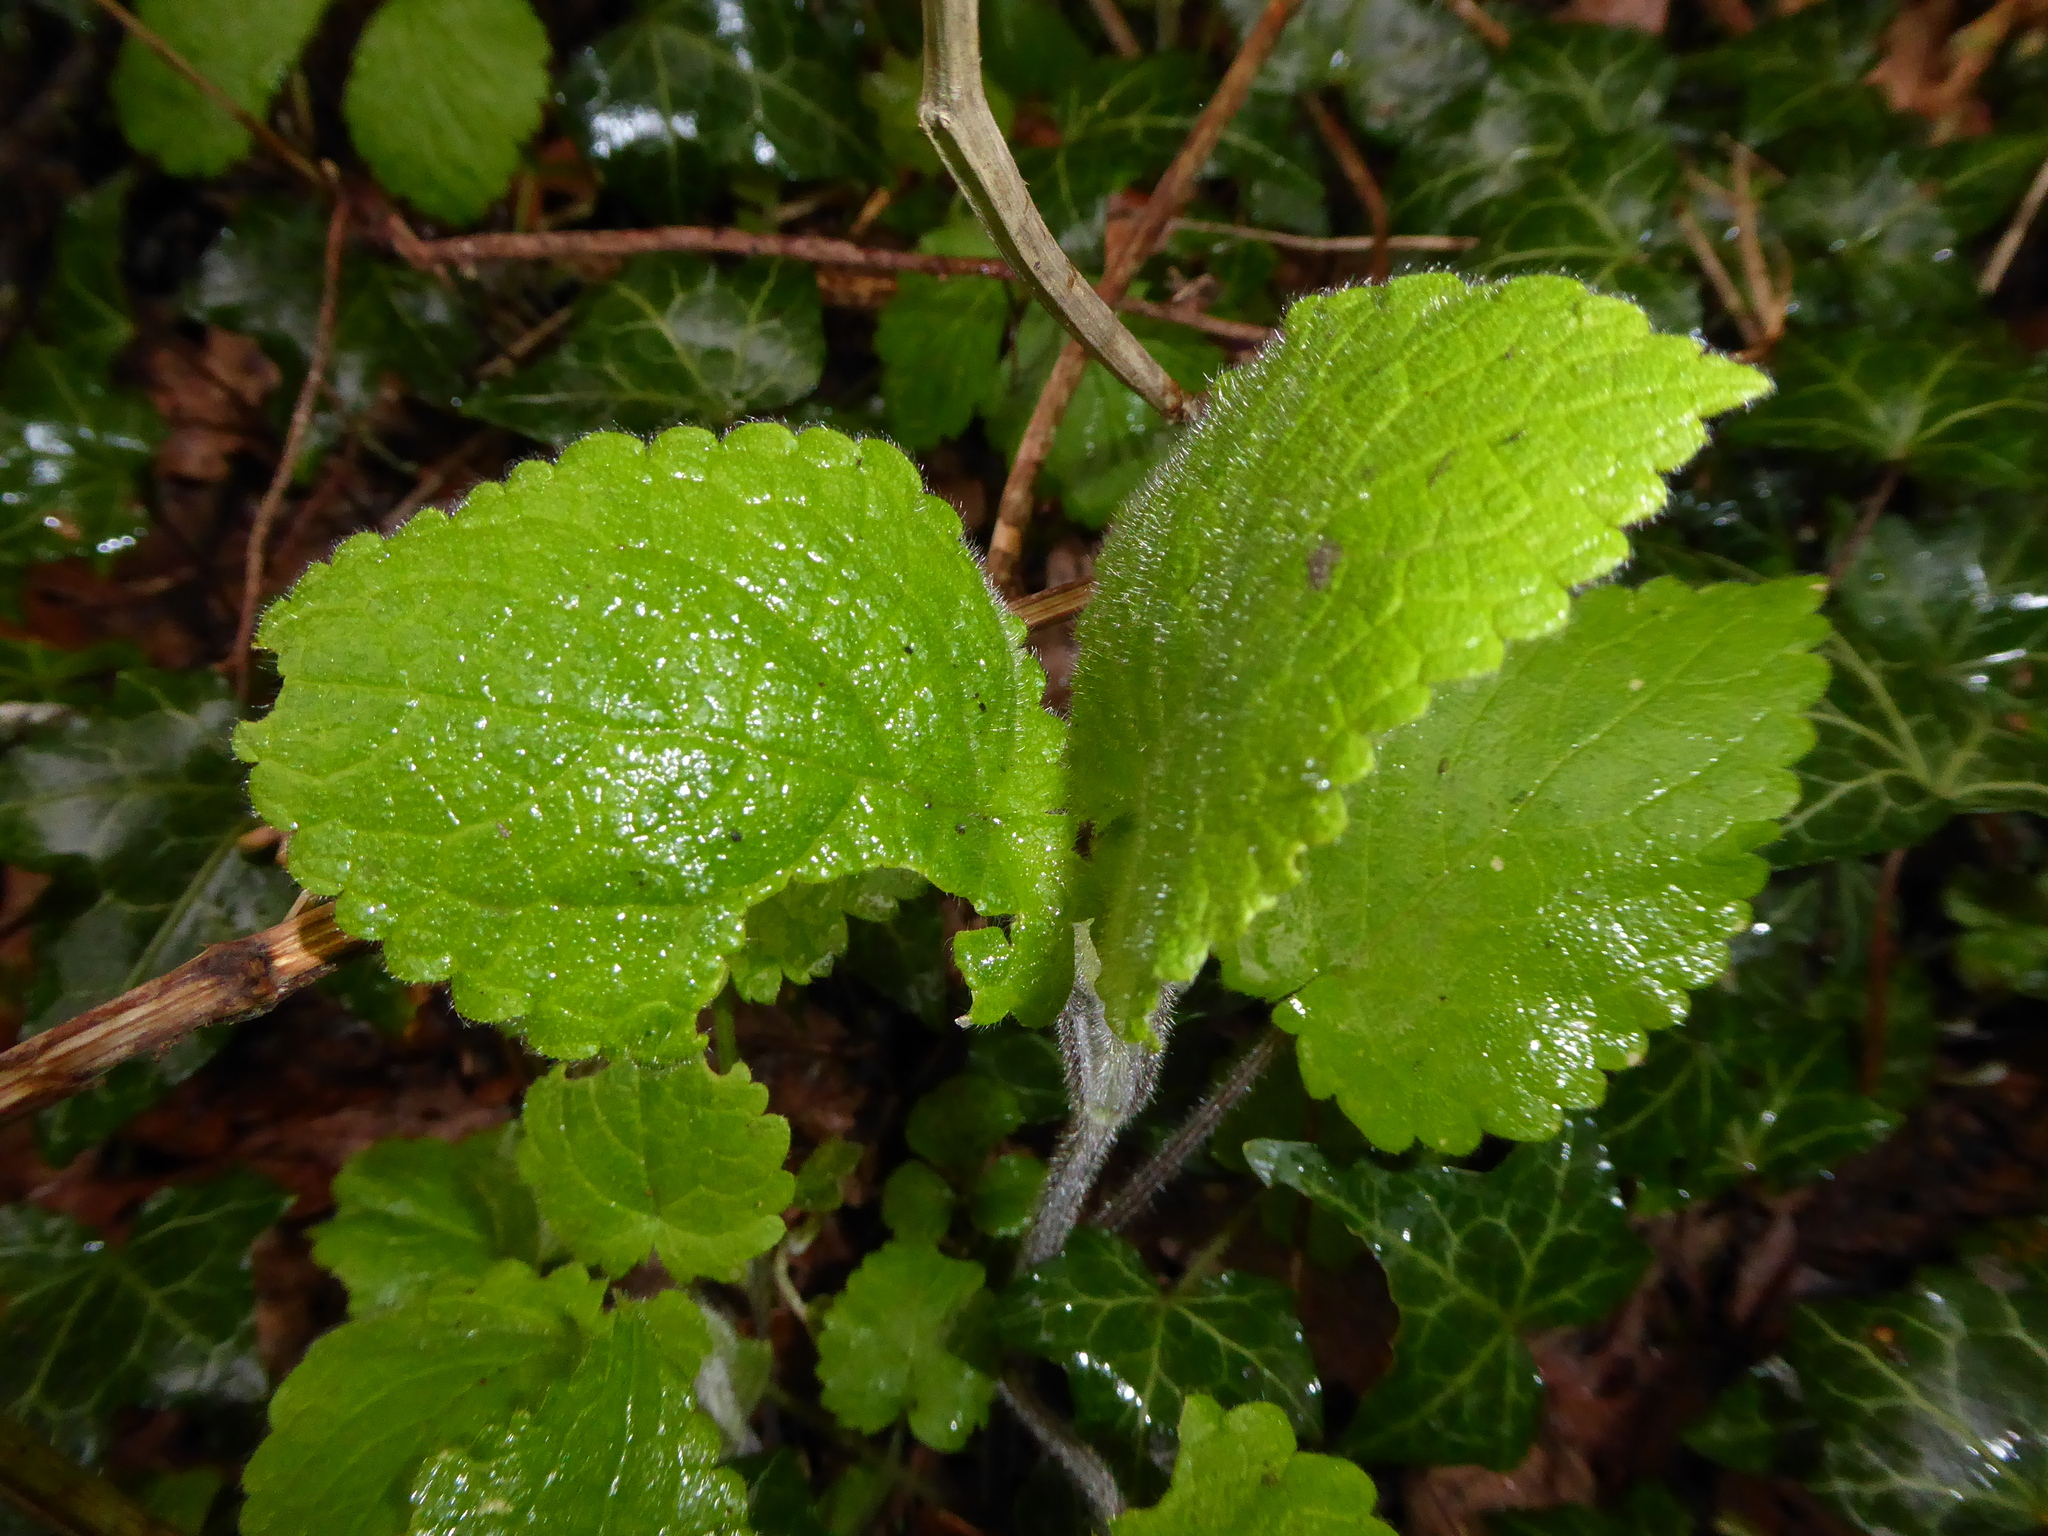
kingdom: Plantae
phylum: Tracheophyta
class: Magnoliopsida
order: Lamiales
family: Lamiaceae
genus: Stachys
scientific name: Stachys sylvatica
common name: Hedge woundwort
